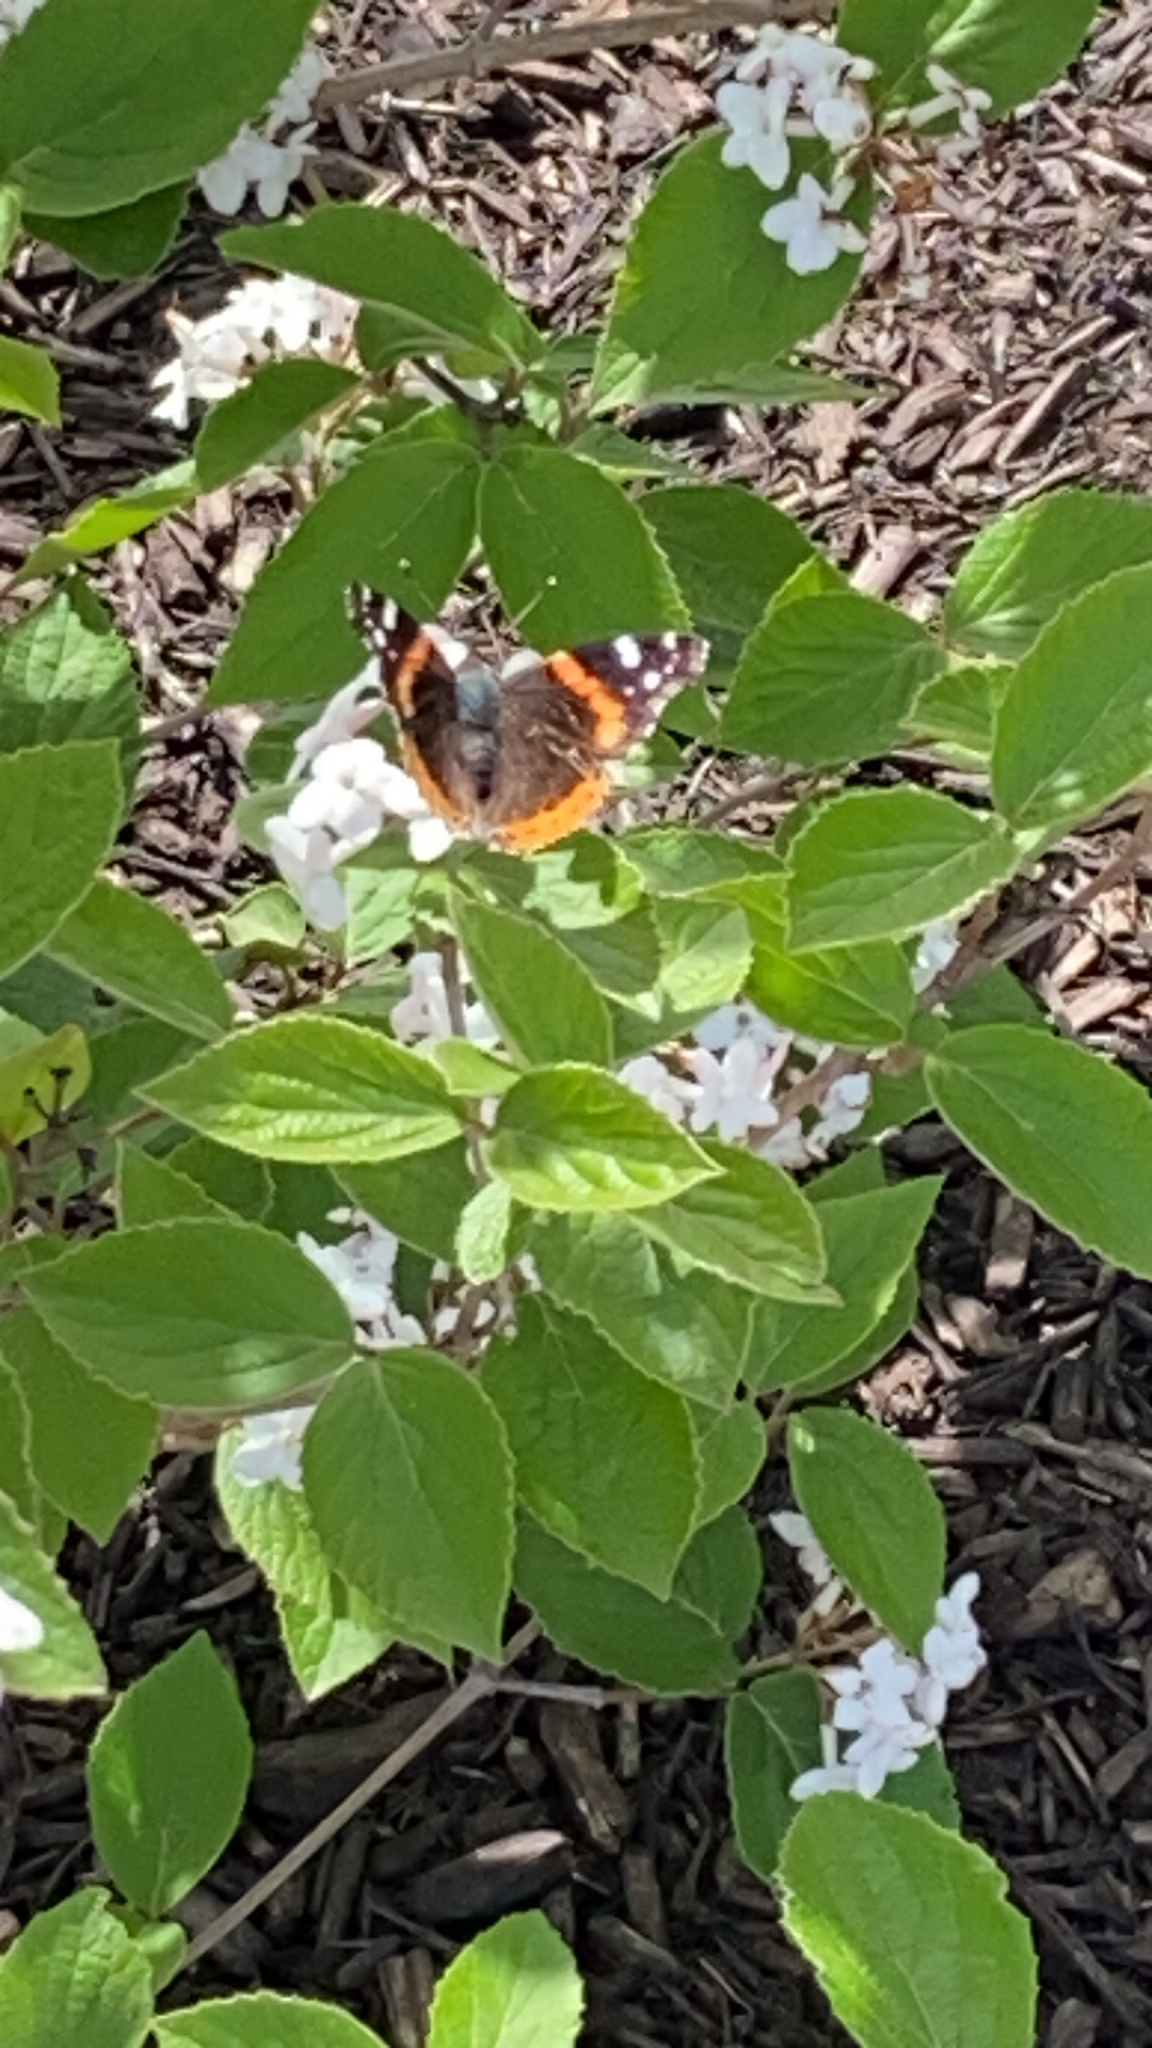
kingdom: Animalia
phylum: Arthropoda
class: Insecta
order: Lepidoptera
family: Nymphalidae
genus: Vanessa
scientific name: Vanessa atalanta
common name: Red admiral
